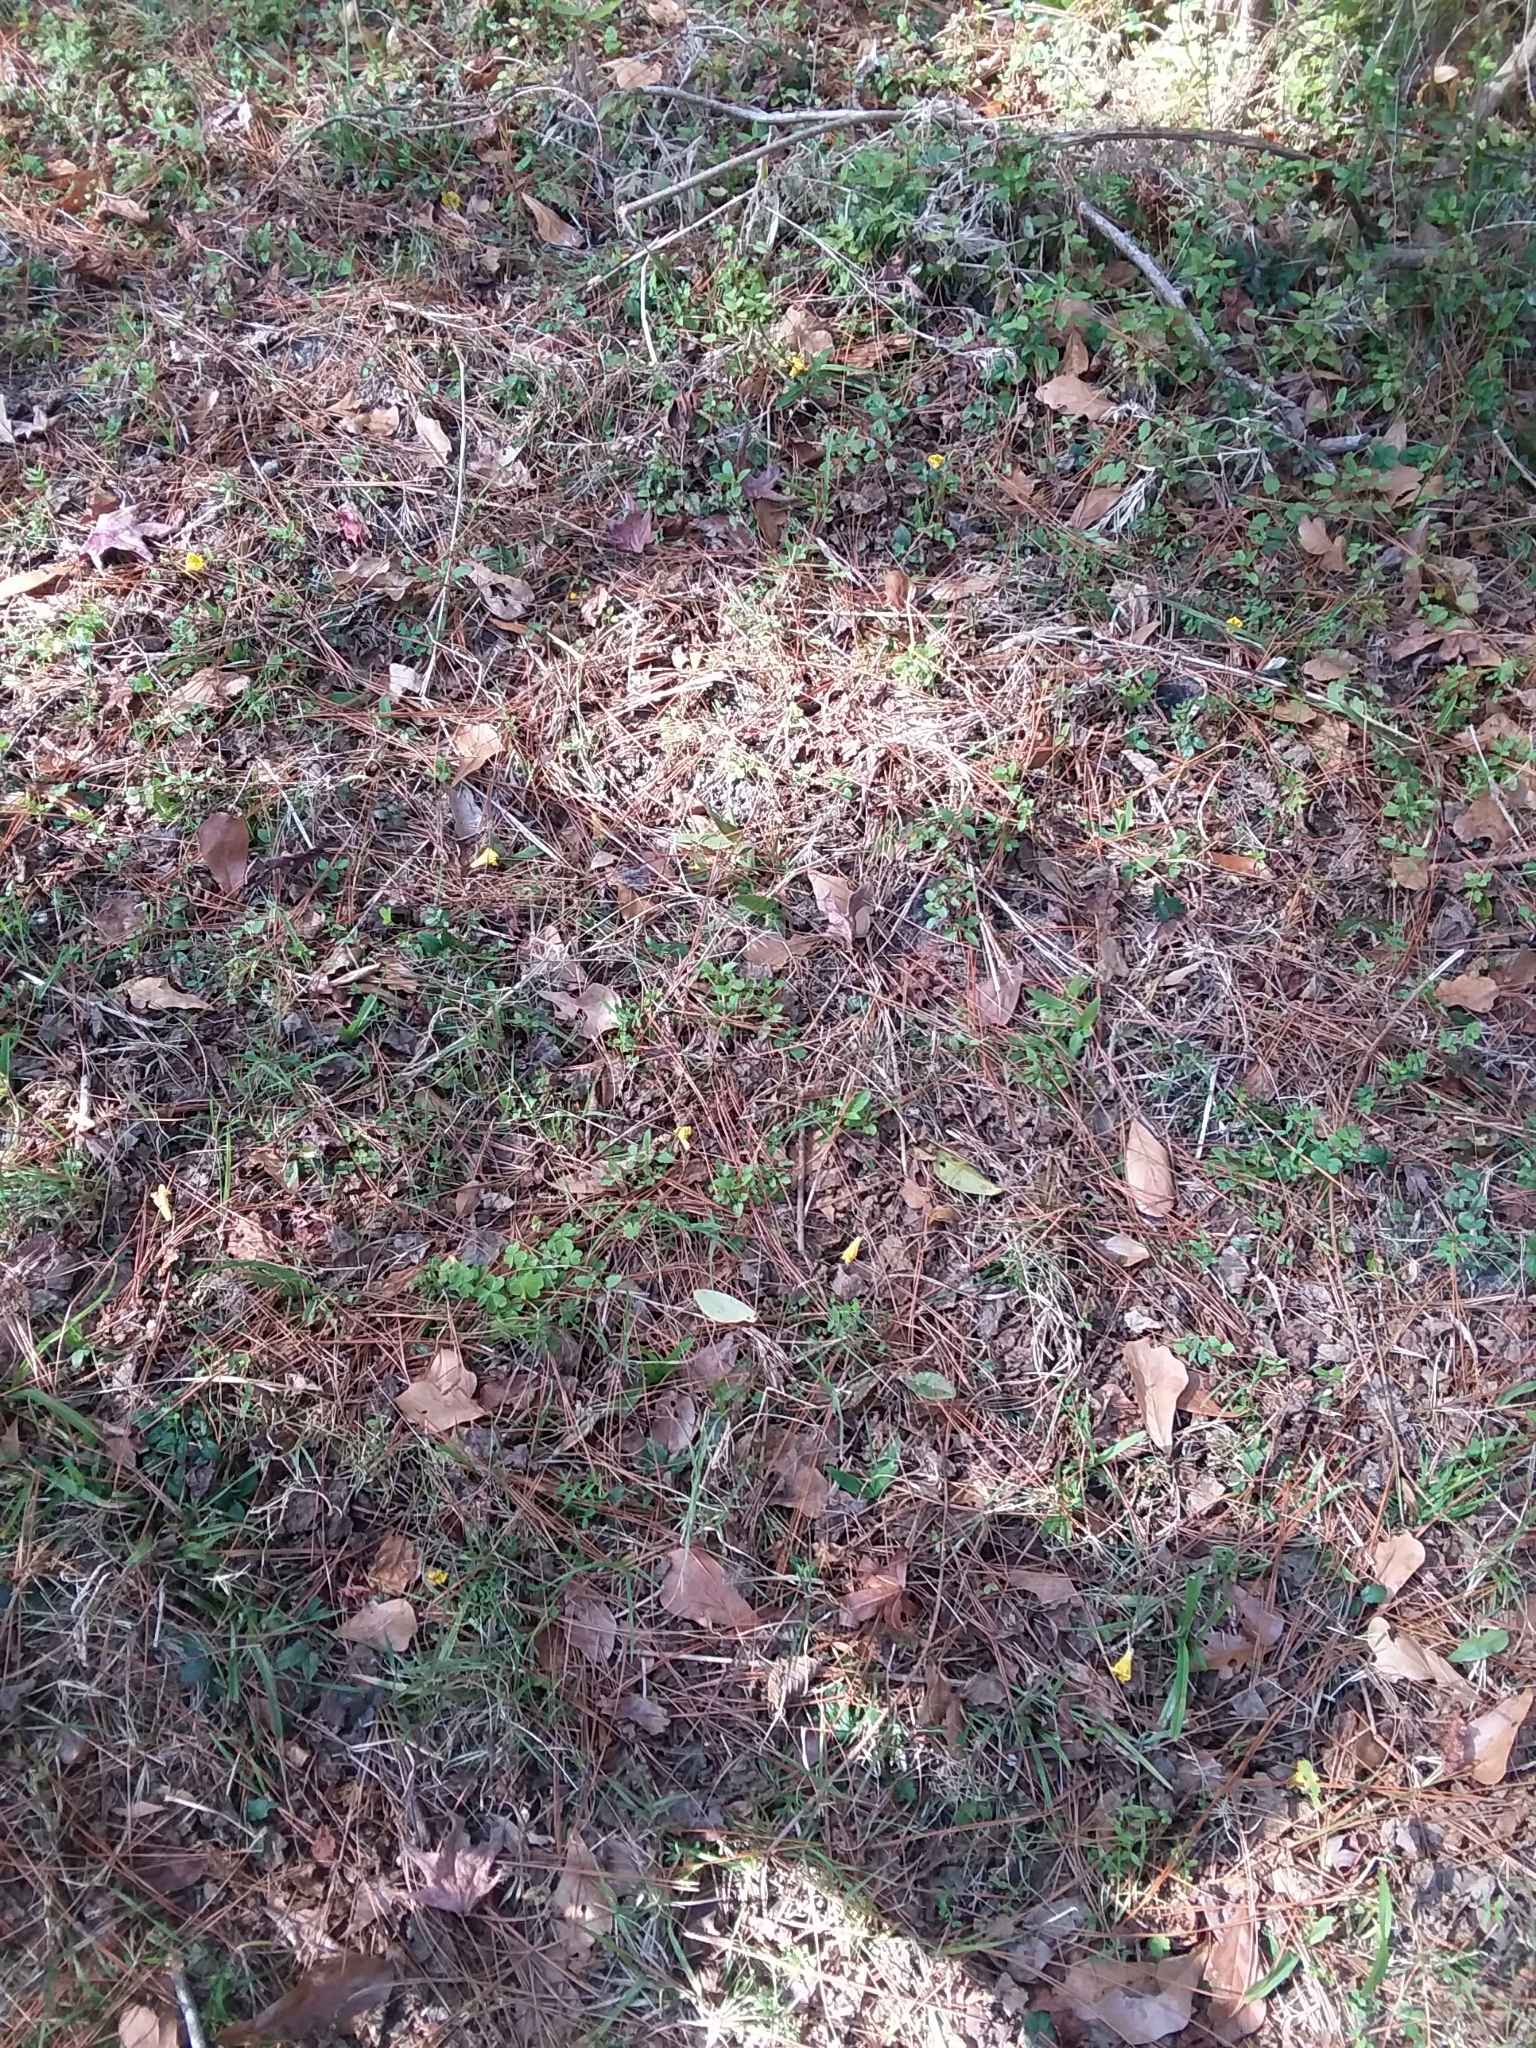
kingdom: Plantae
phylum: Tracheophyta
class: Magnoliopsida
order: Gentianales
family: Gelsemiaceae
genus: Gelsemium
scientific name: Gelsemium sempervirens
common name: Carolina-jasmine
